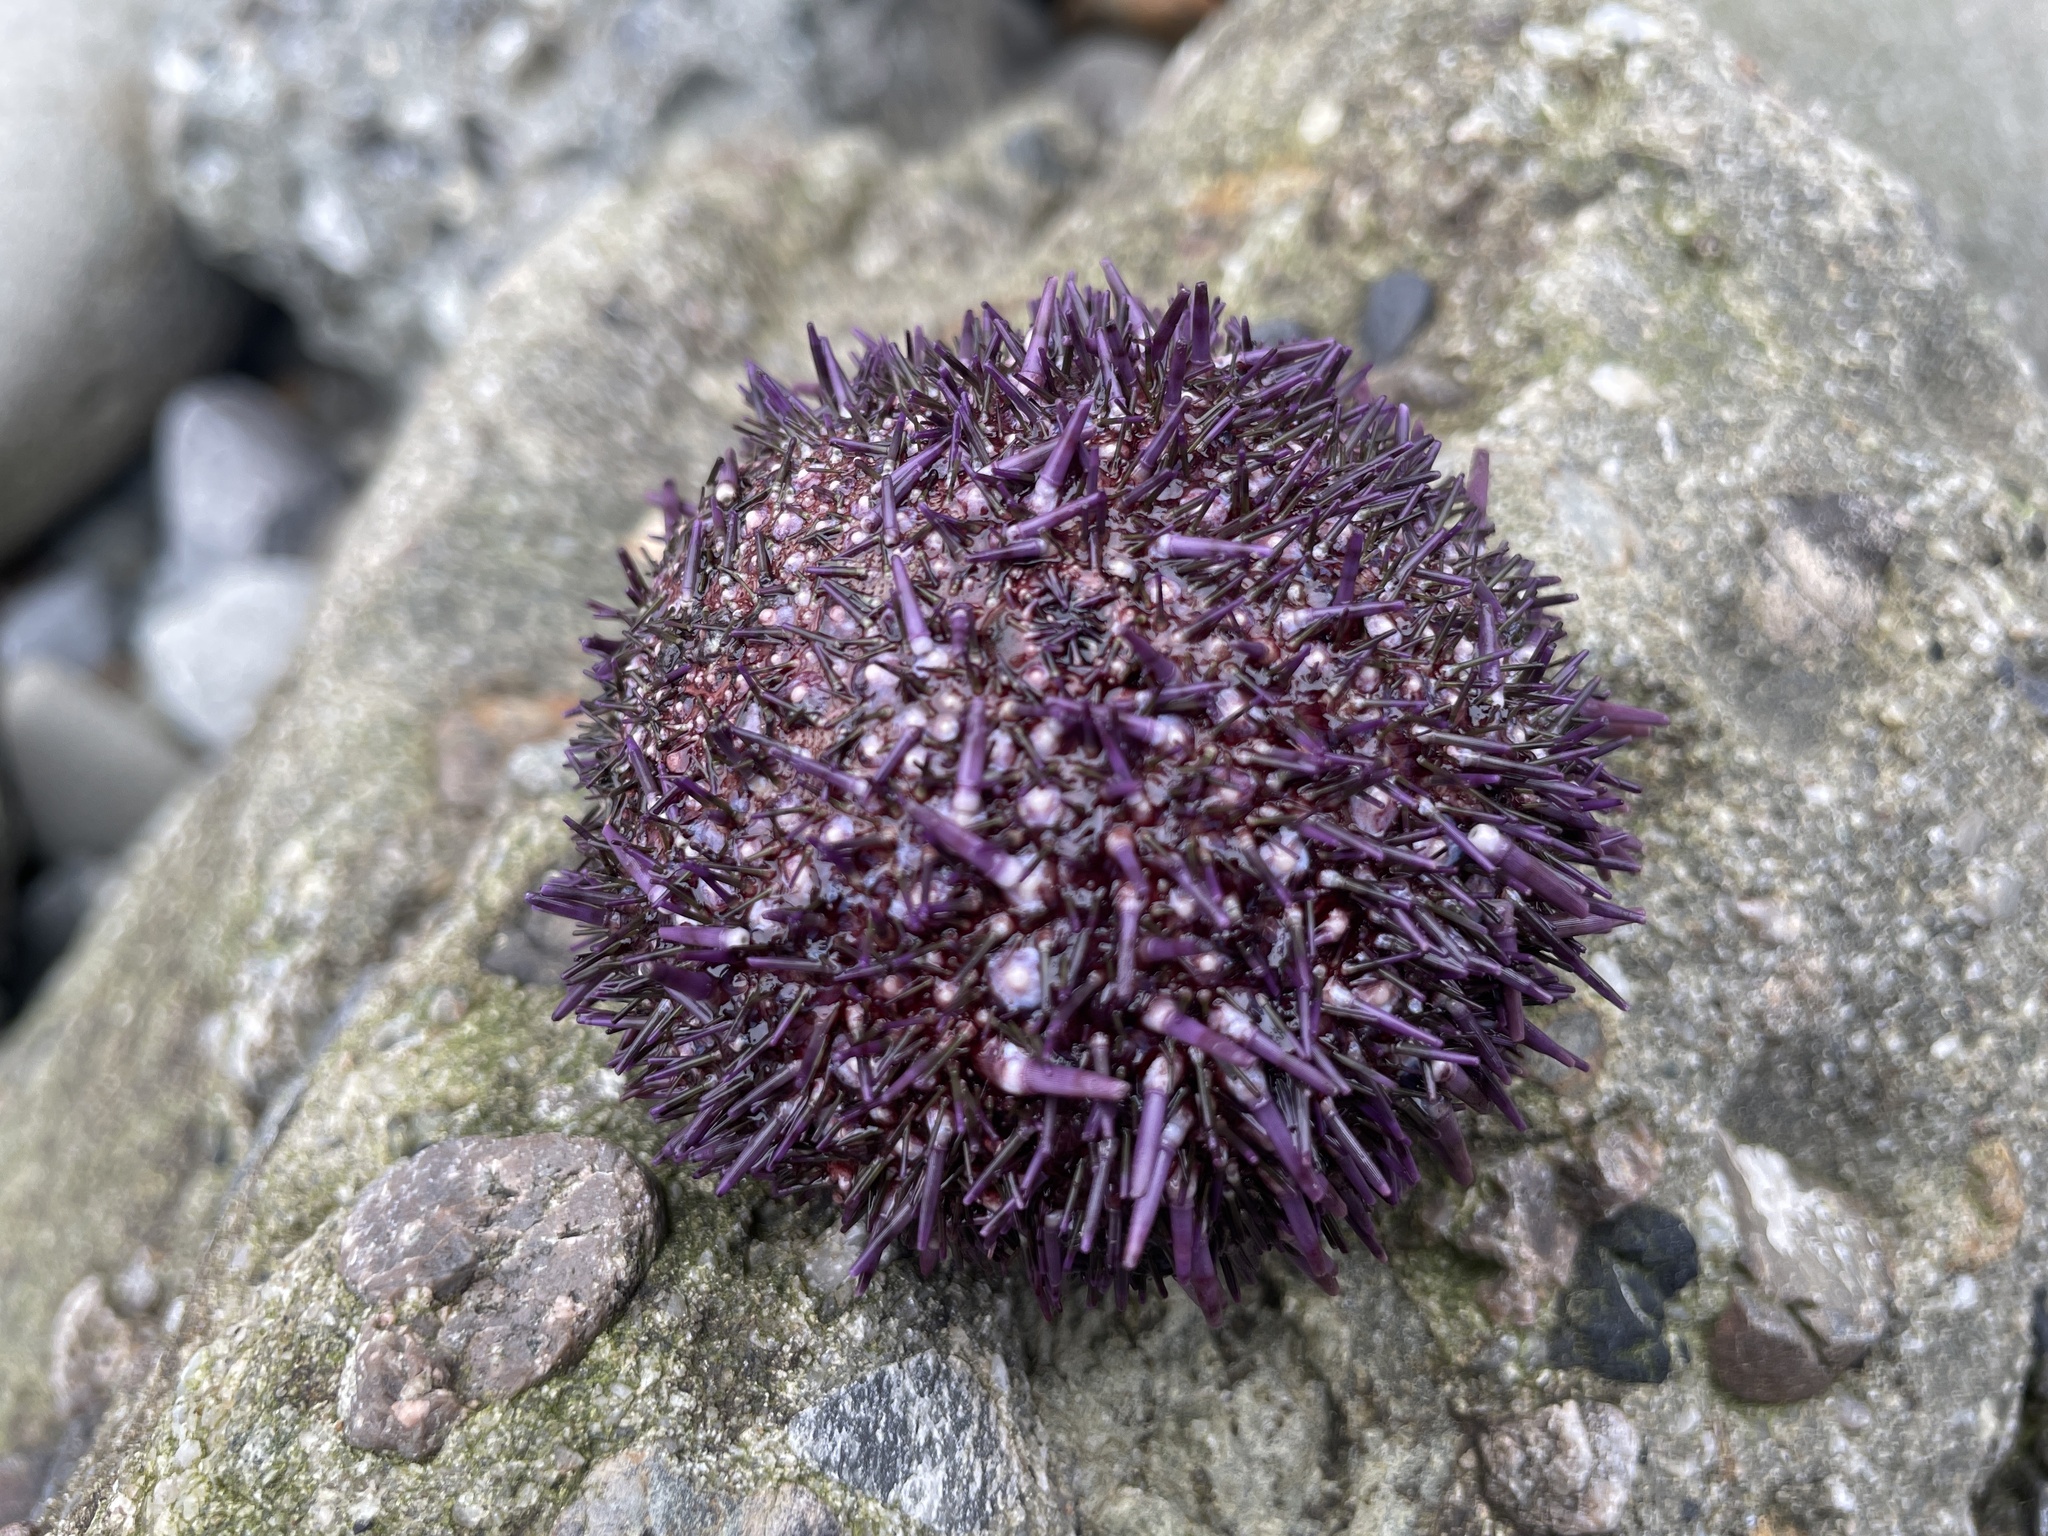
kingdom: Animalia
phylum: Echinodermata
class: Echinoidea
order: Camarodonta
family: Strongylocentrotidae
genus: Strongylocentrotus
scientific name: Strongylocentrotus purpuratus
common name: Purple sea urchin
